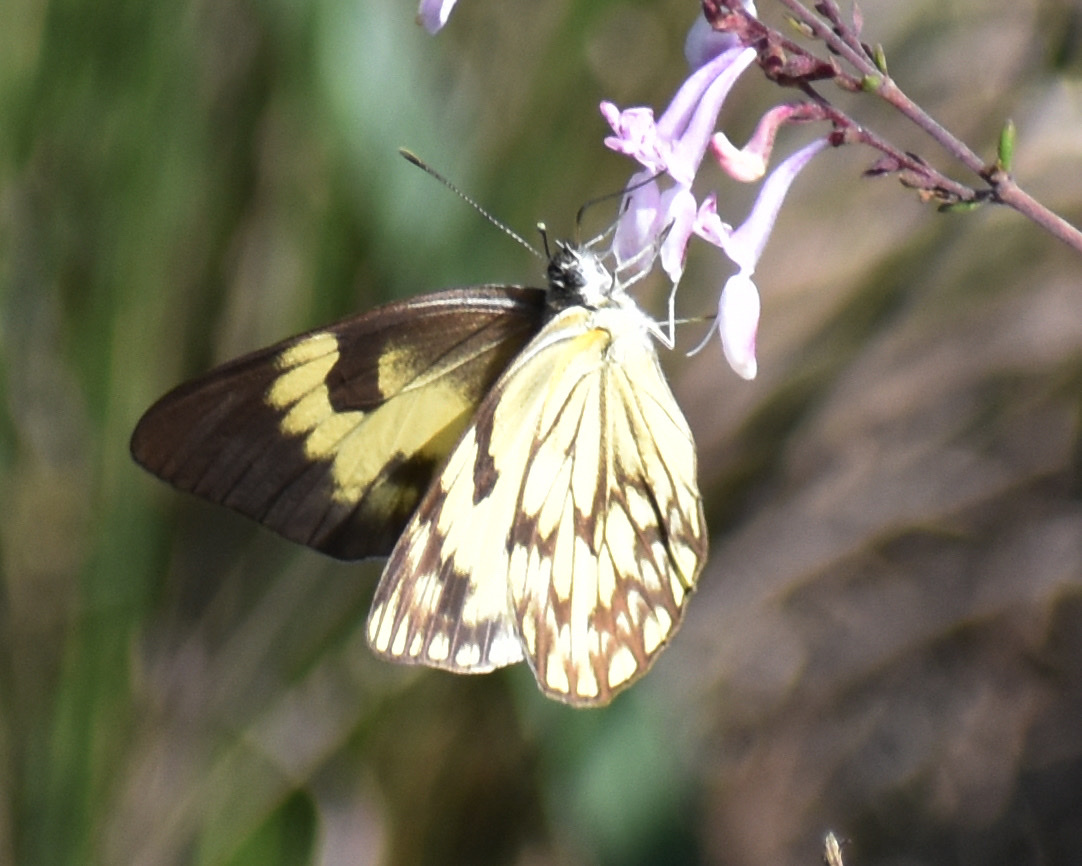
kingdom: Animalia
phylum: Arthropoda
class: Insecta
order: Lepidoptera
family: Pieridae
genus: Belenois
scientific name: Belenois gidica
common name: Pointed caper white
